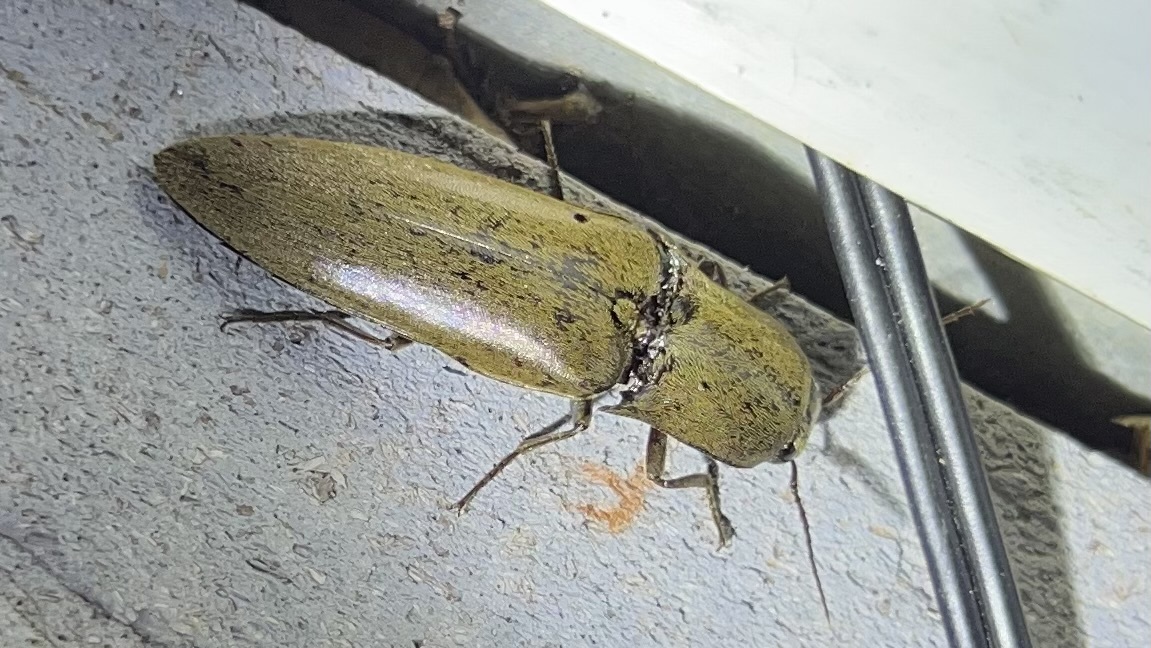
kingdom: Animalia
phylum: Arthropoda
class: Insecta
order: Coleoptera
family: Elateridae
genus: Orthostethus
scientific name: Orthostethus infuscatus
